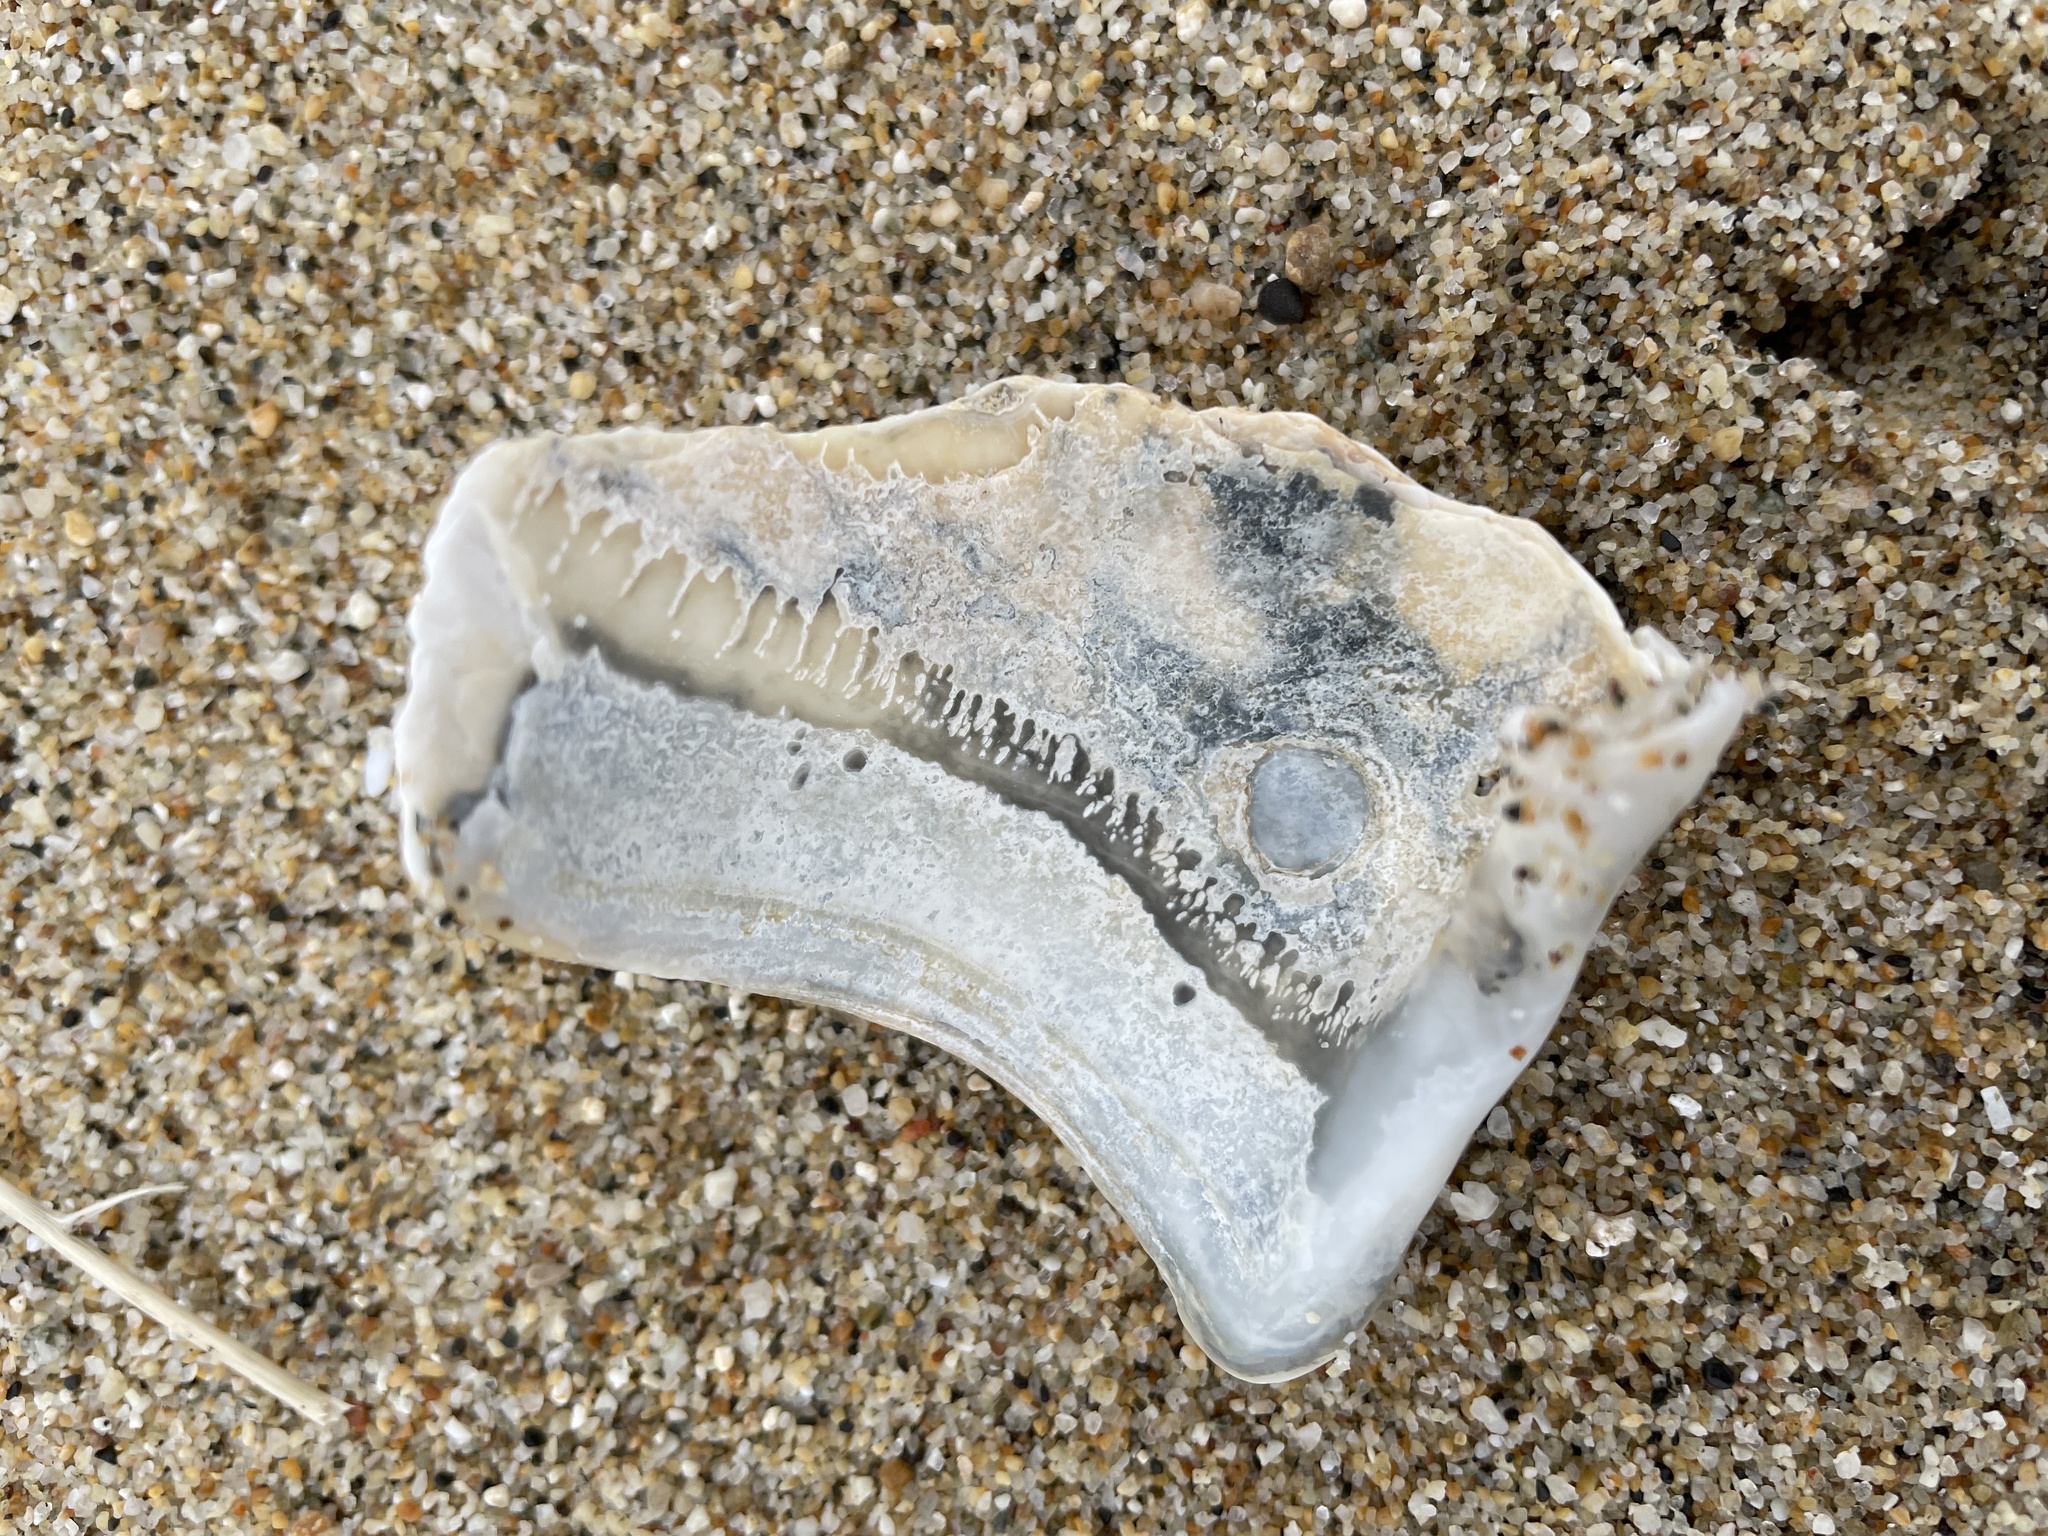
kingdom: Animalia
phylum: Mollusca
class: Bivalvia
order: Myida
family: Pholadidae
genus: Zirfaea
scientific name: Zirfaea pilsbryi
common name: Rough piddock
